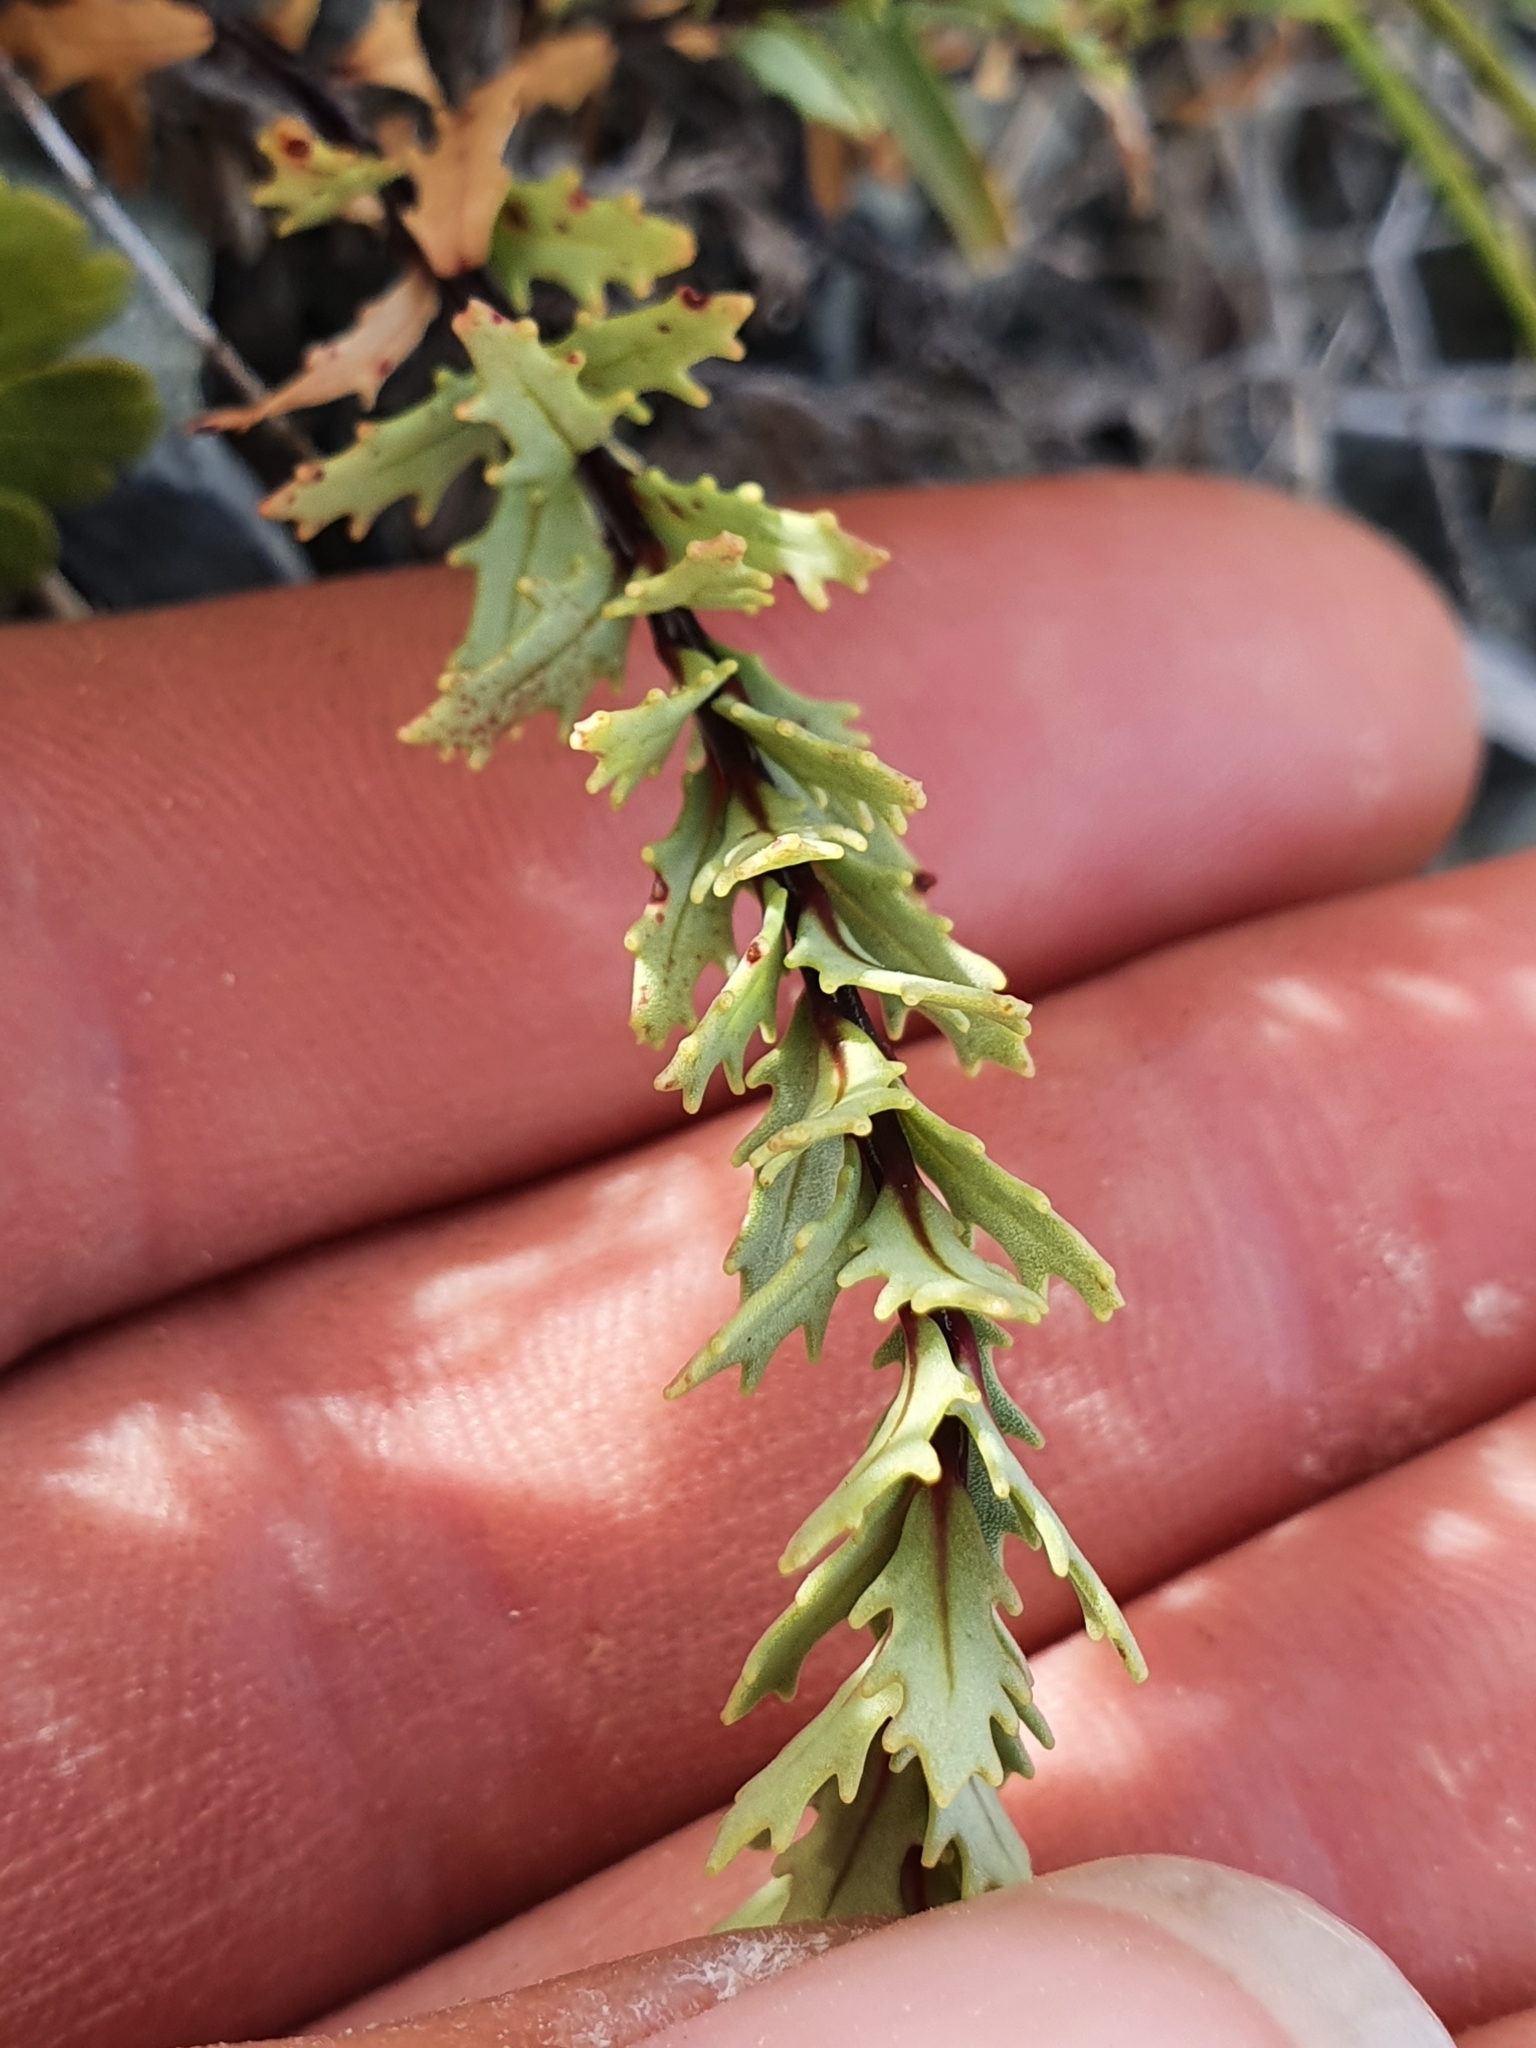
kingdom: Plantae
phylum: Tracheophyta
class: Magnoliopsida
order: Myrtales
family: Onagraceae
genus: Epilobium
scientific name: Epilobium melanocaulon
